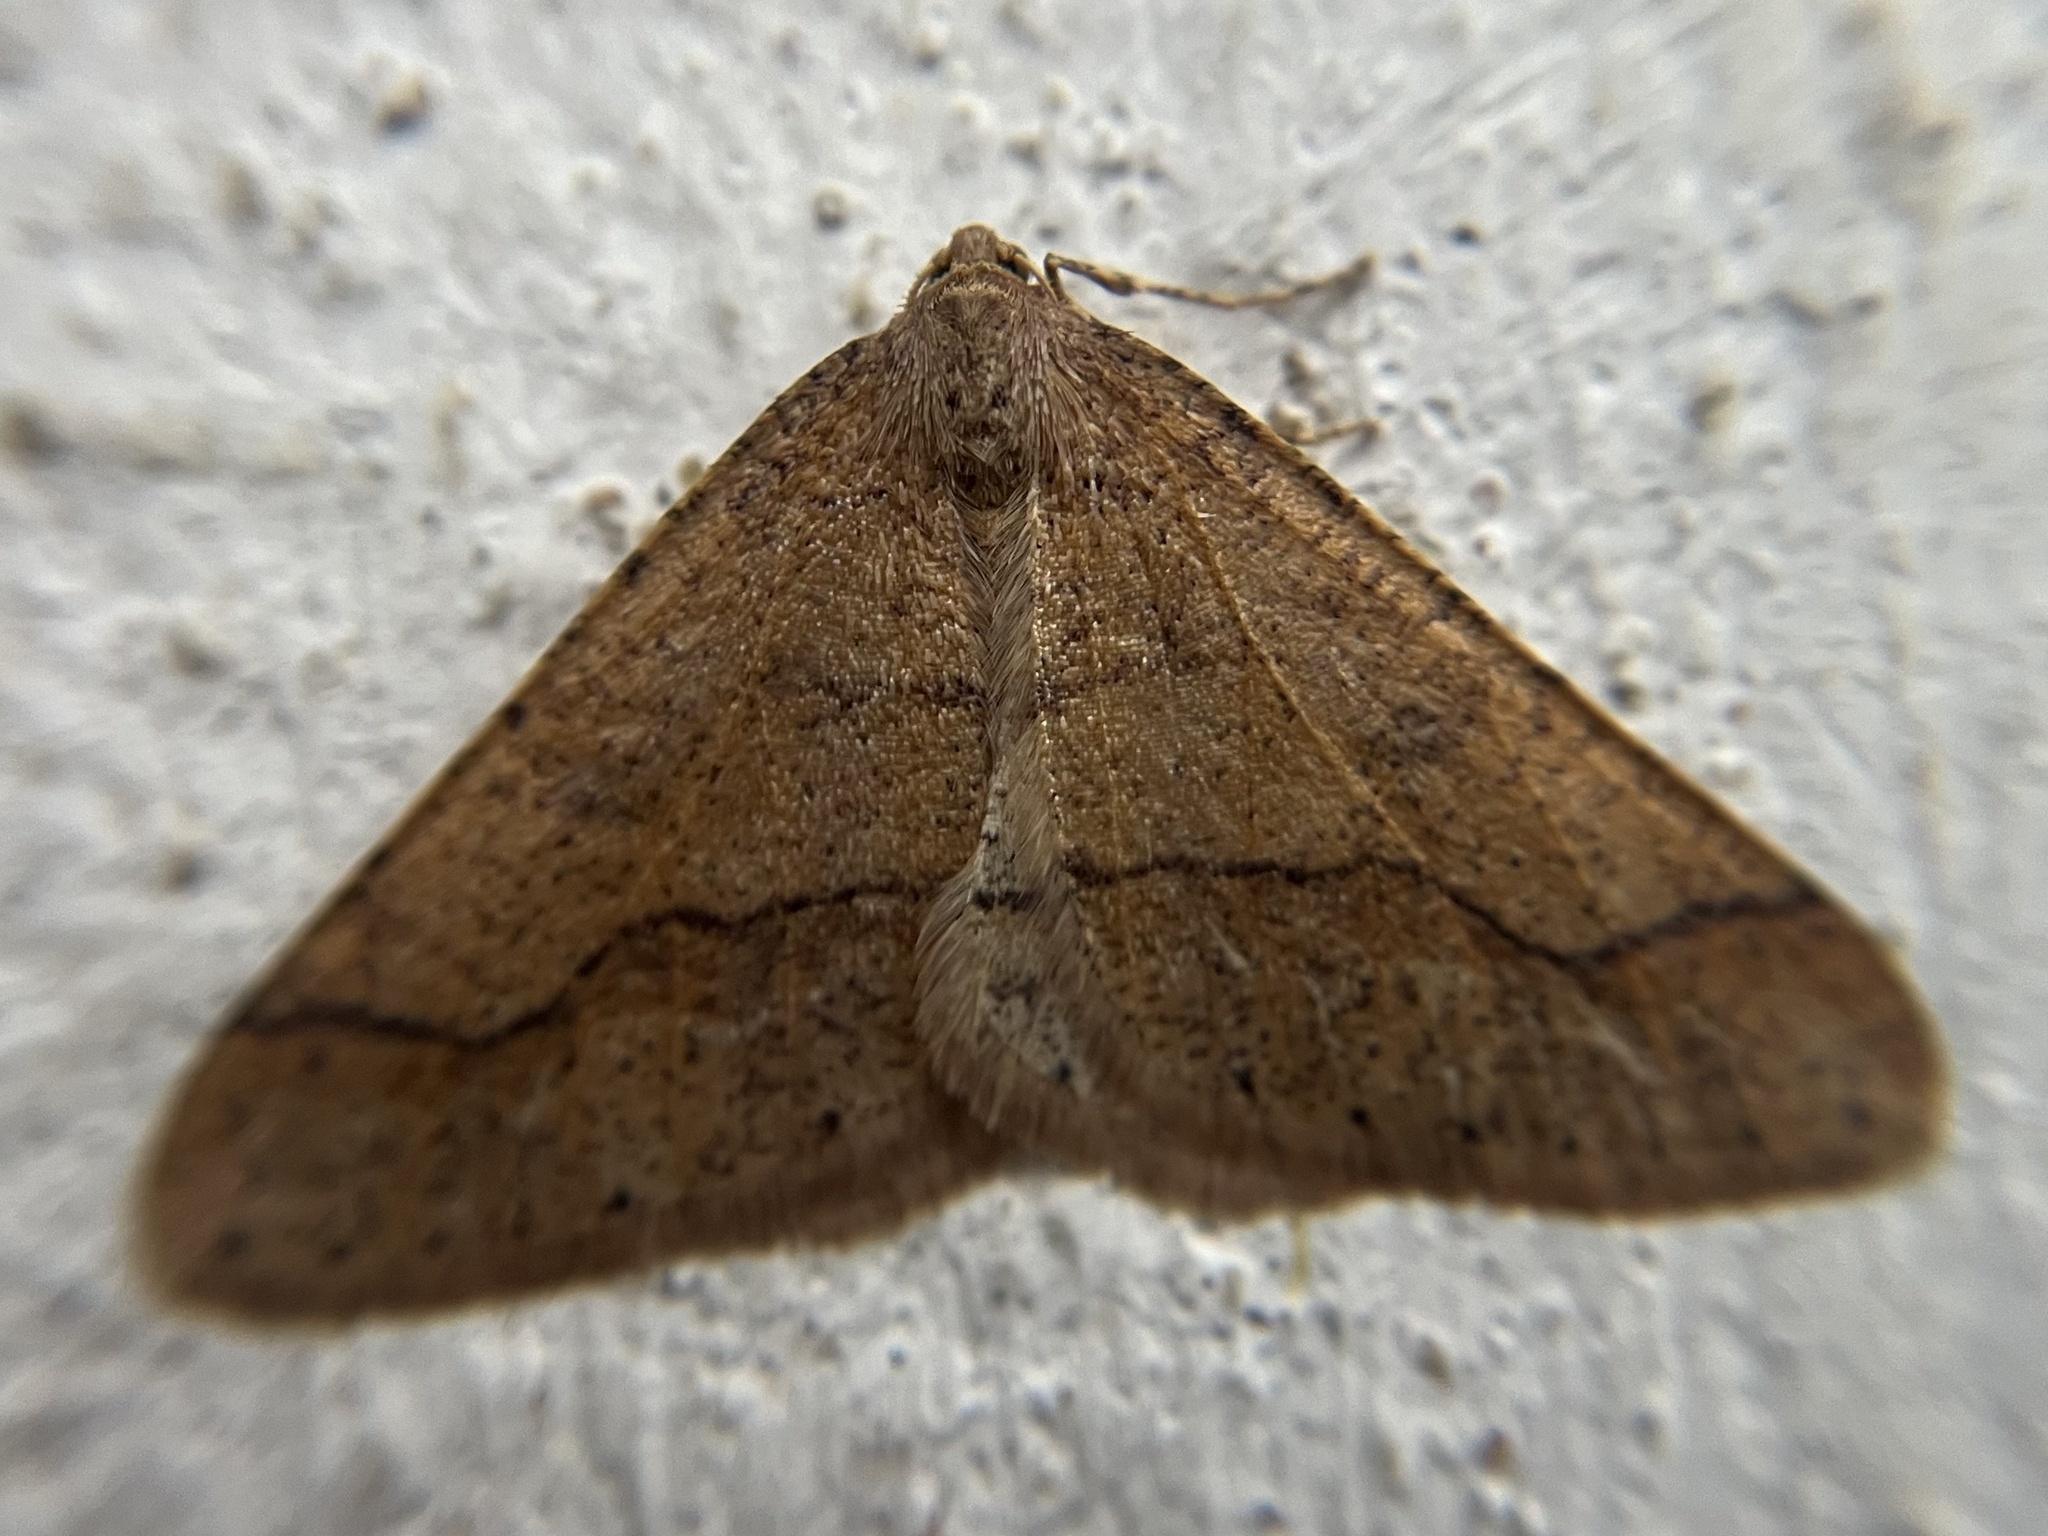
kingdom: Animalia
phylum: Arthropoda
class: Insecta
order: Lepidoptera
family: Geometridae
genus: Agriopis
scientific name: Agriopis marginaria
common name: Dotted border
